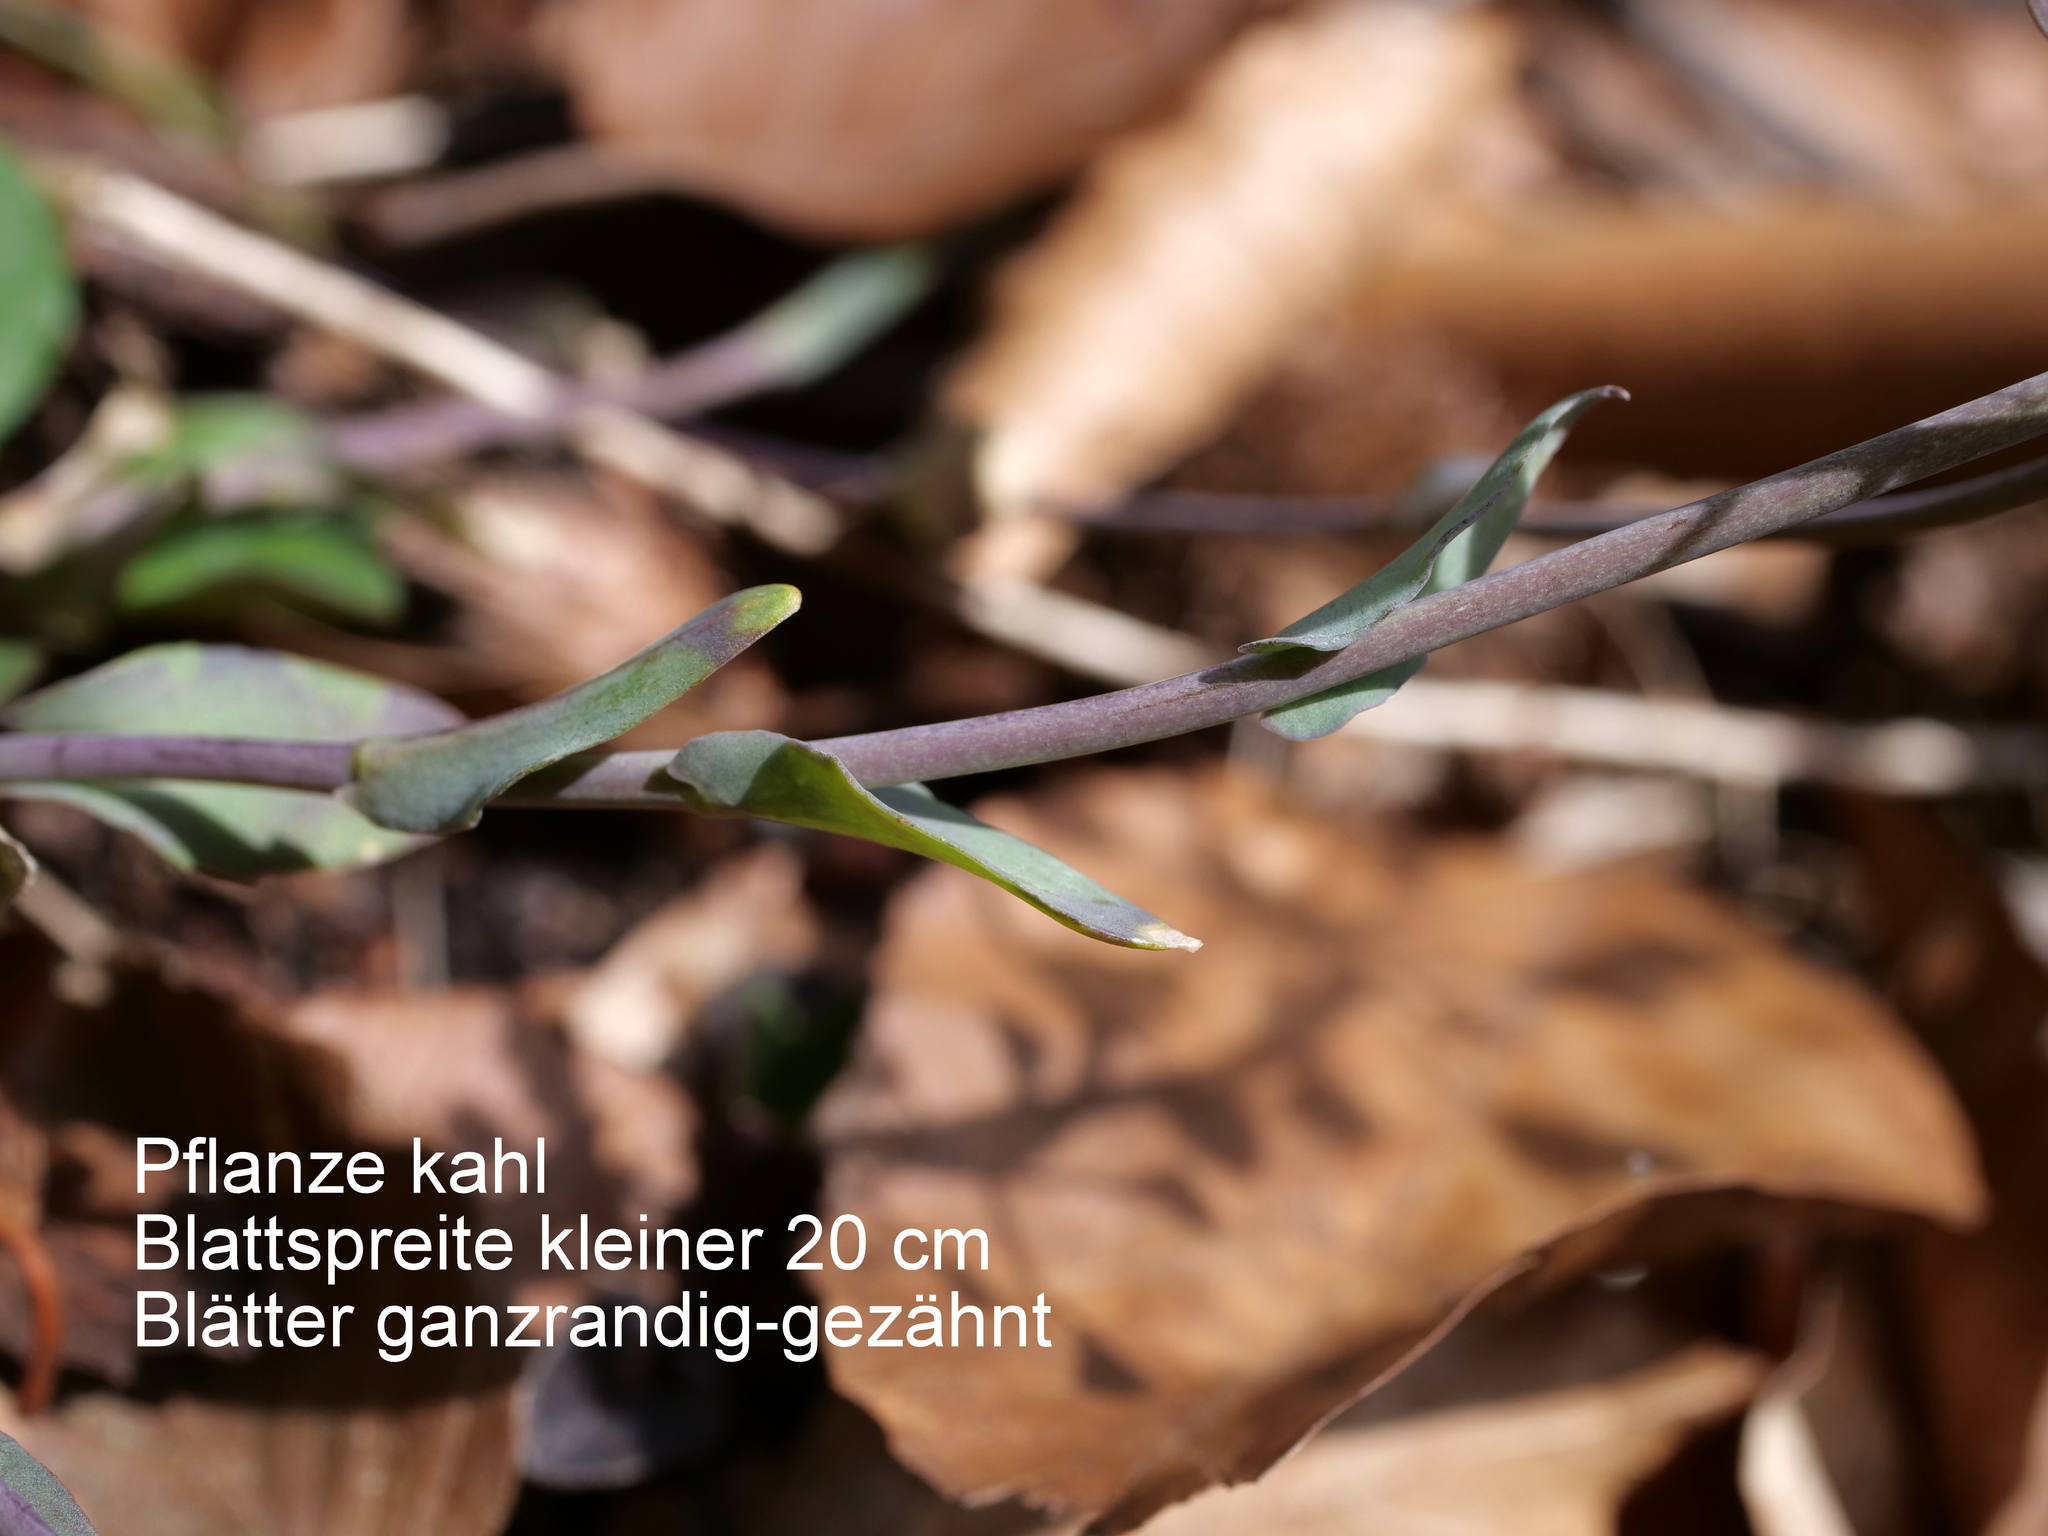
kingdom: Plantae
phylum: Tracheophyta
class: Magnoliopsida
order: Brassicales
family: Brassicaceae
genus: Noccaea
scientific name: Noccaea montana
